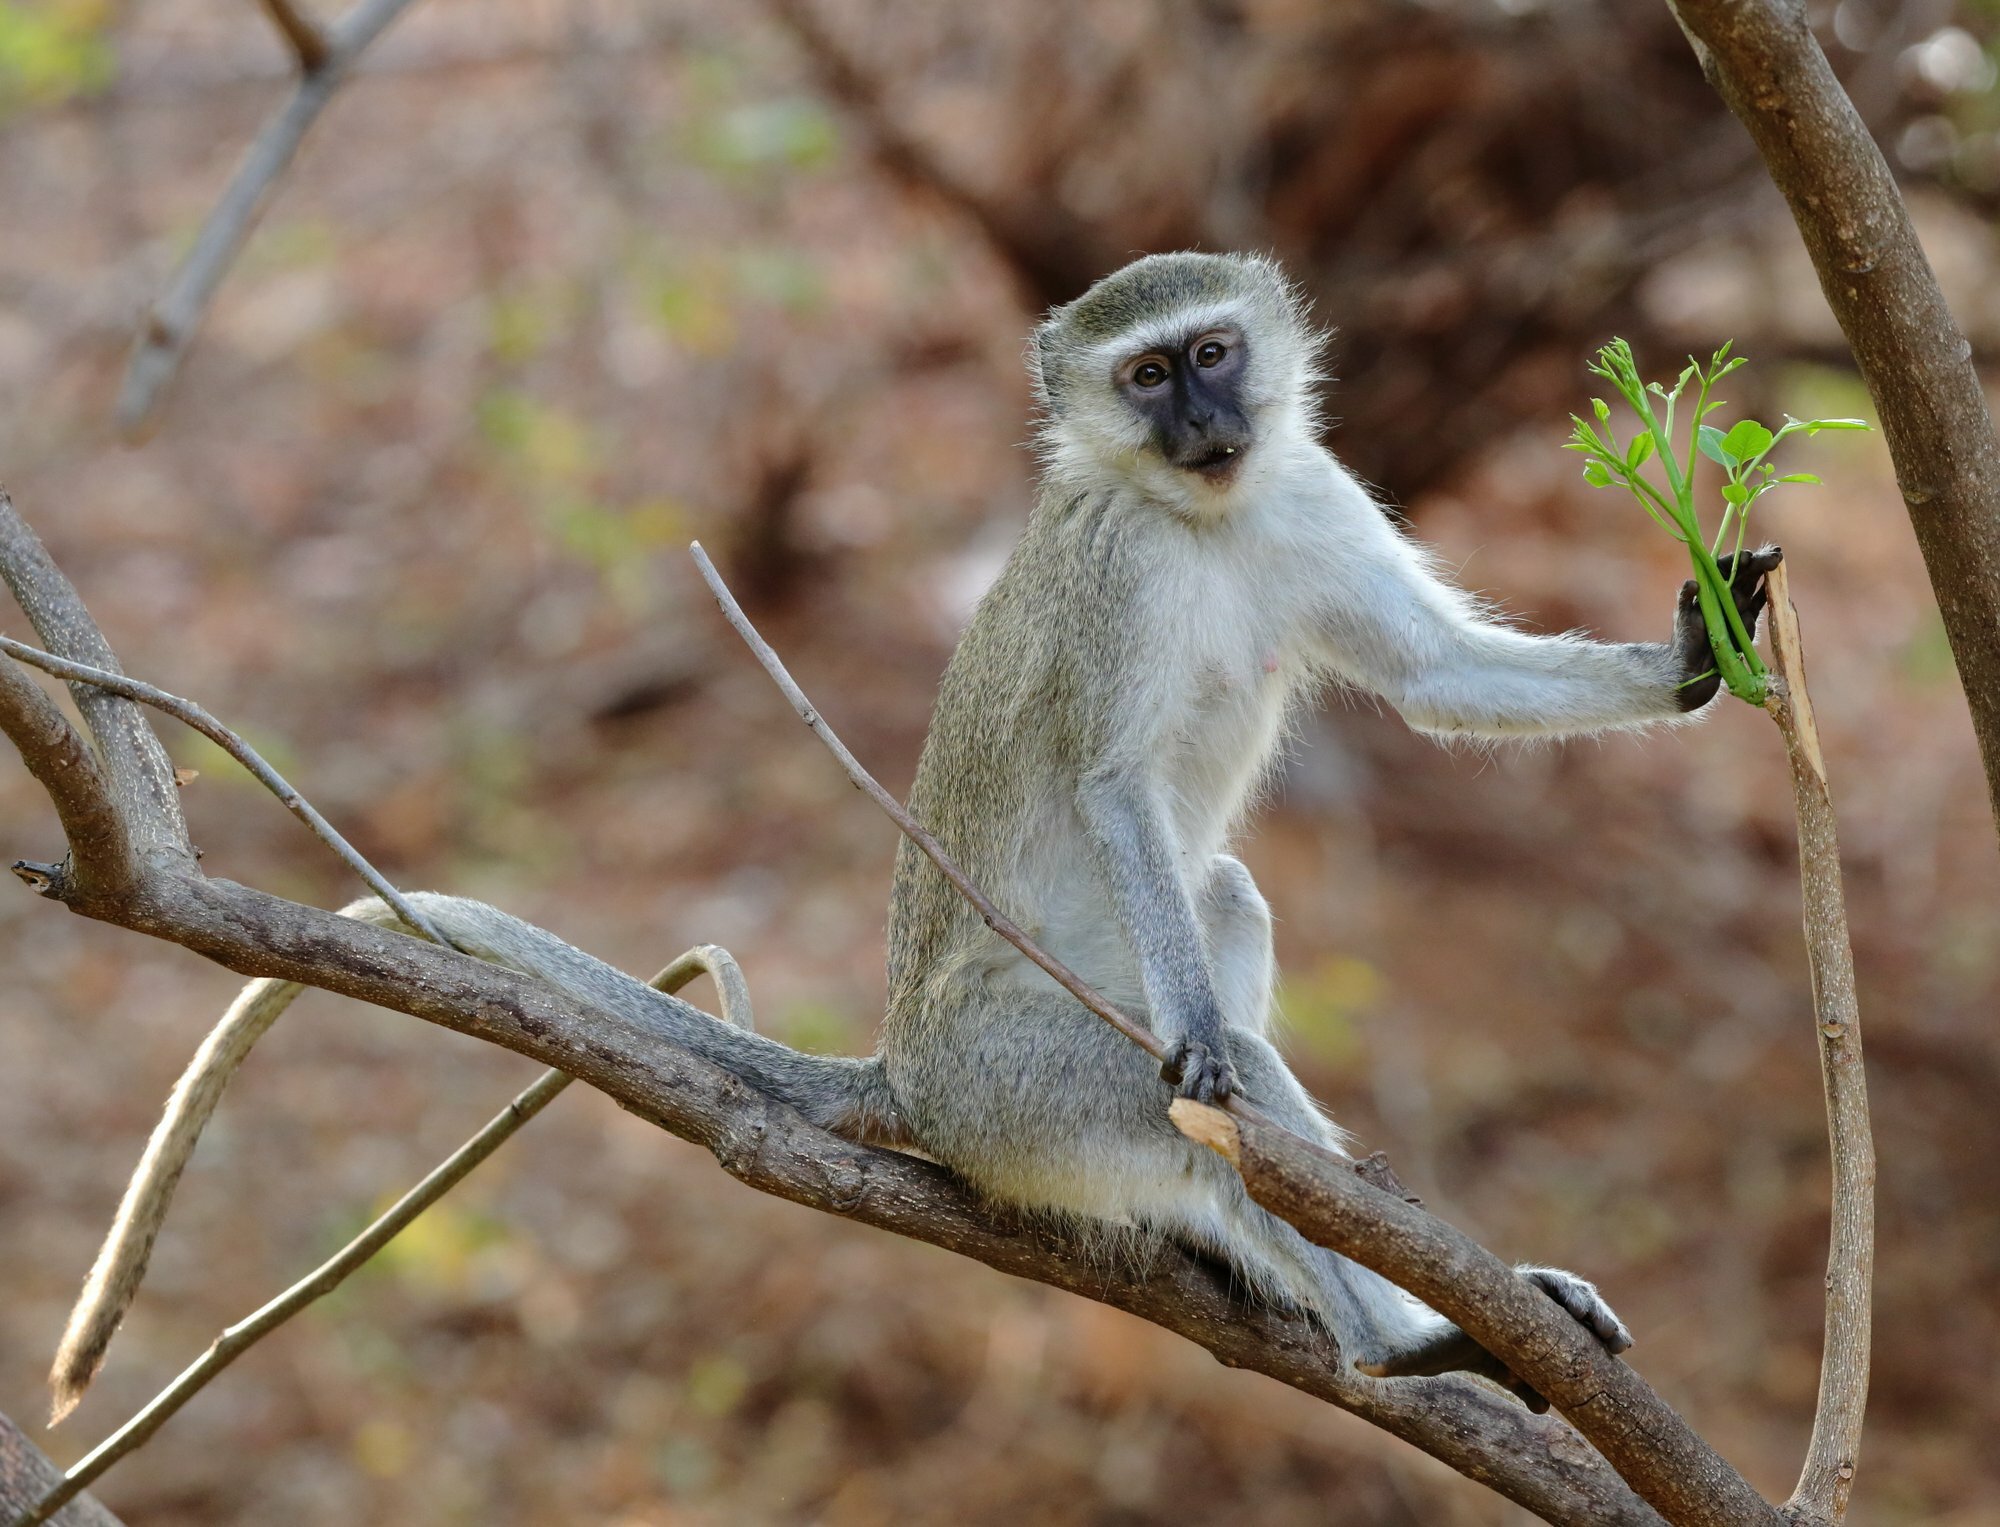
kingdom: Animalia
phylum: Chordata
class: Mammalia
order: Primates
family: Cercopithecidae
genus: Chlorocebus
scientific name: Chlorocebus pygerythrus
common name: Vervet monkey
